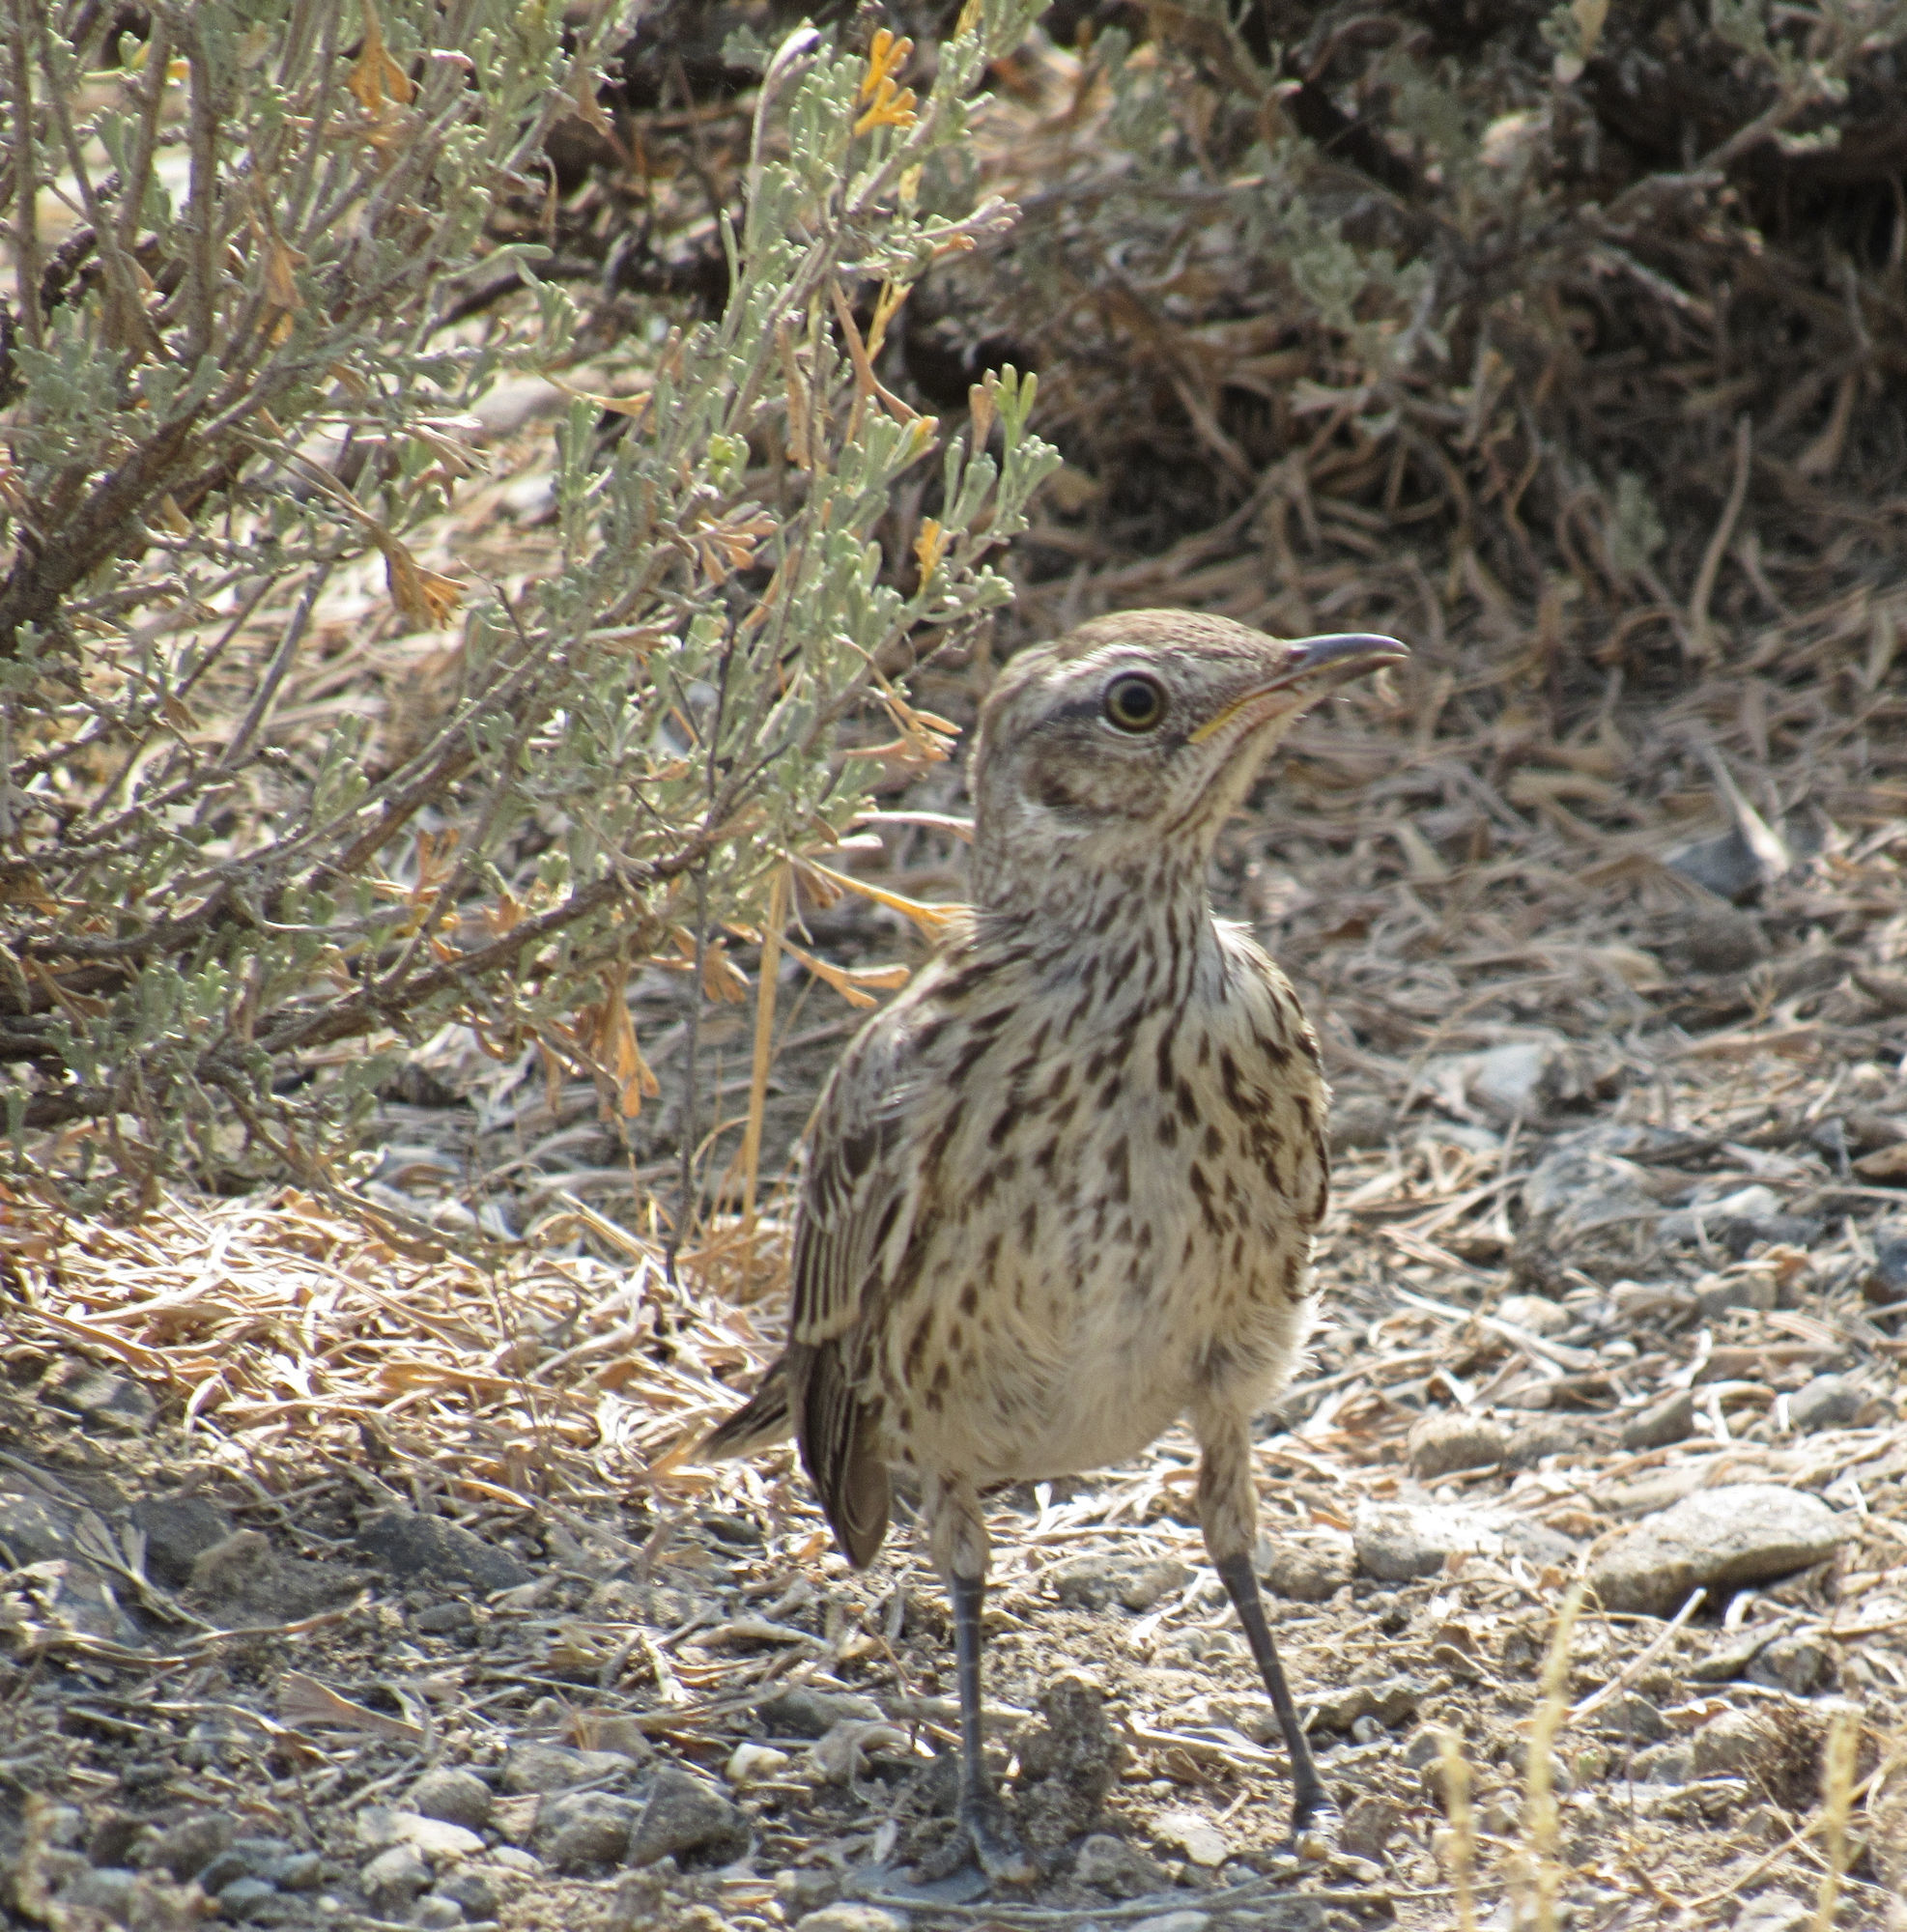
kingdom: Animalia
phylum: Chordata
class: Aves
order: Passeriformes
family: Mimidae
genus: Oreoscoptes
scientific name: Oreoscoptes montanus
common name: Sage thrasher
